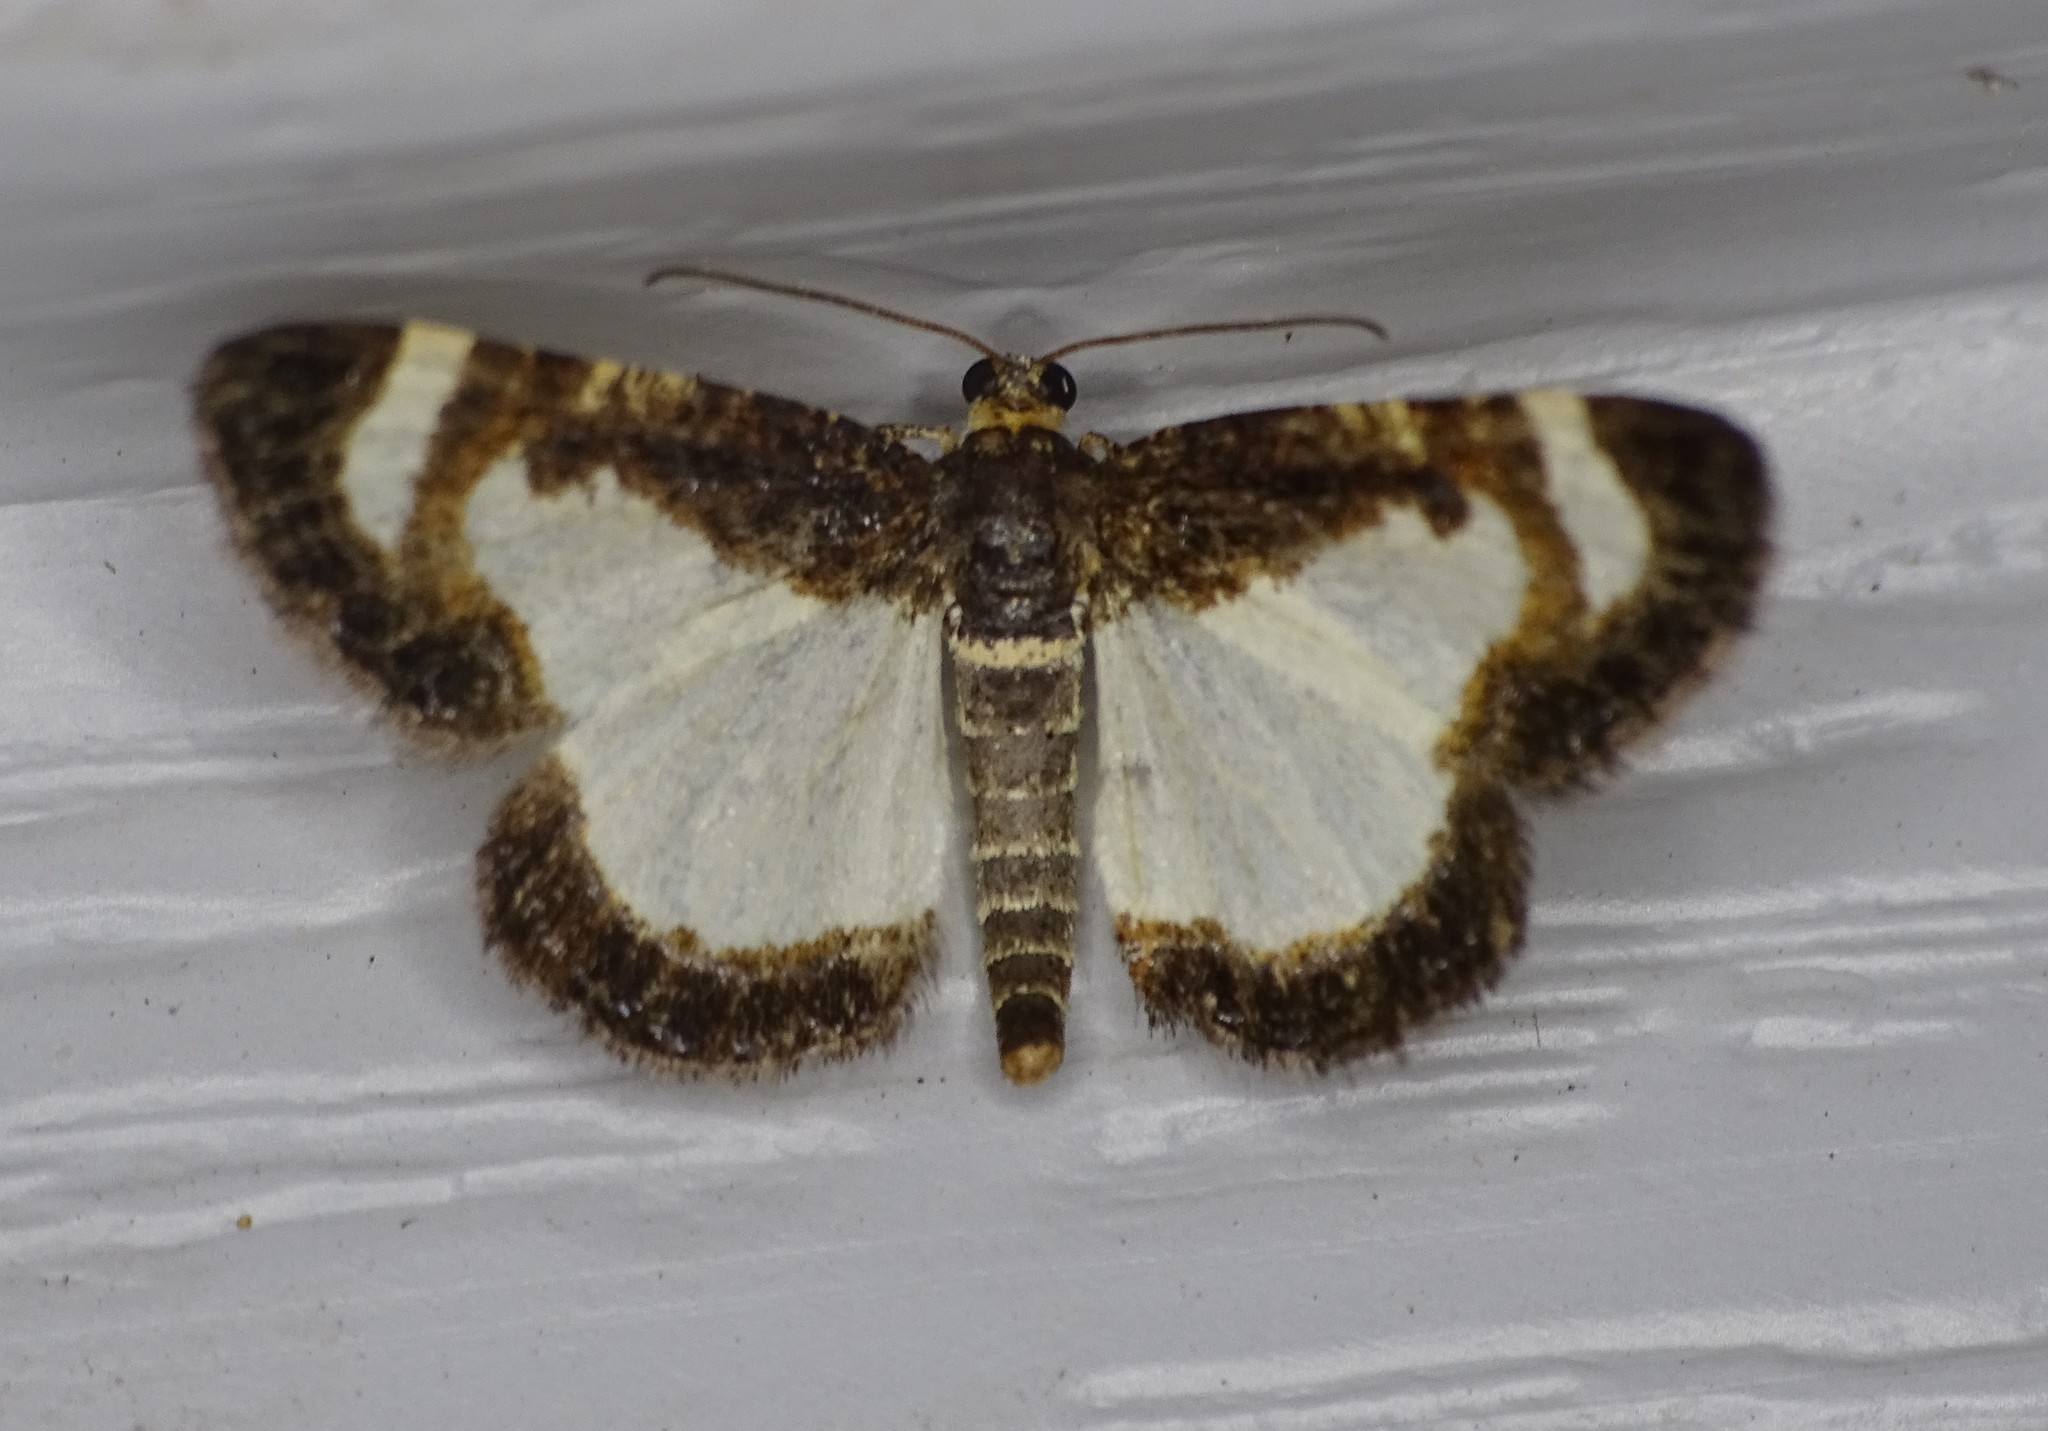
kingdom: Animalia
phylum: Arthropoda
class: Insecta
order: Lepidoptera
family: Geometridae
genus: Heliomata
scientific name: Heliomata cycladata
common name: Common spring moth
